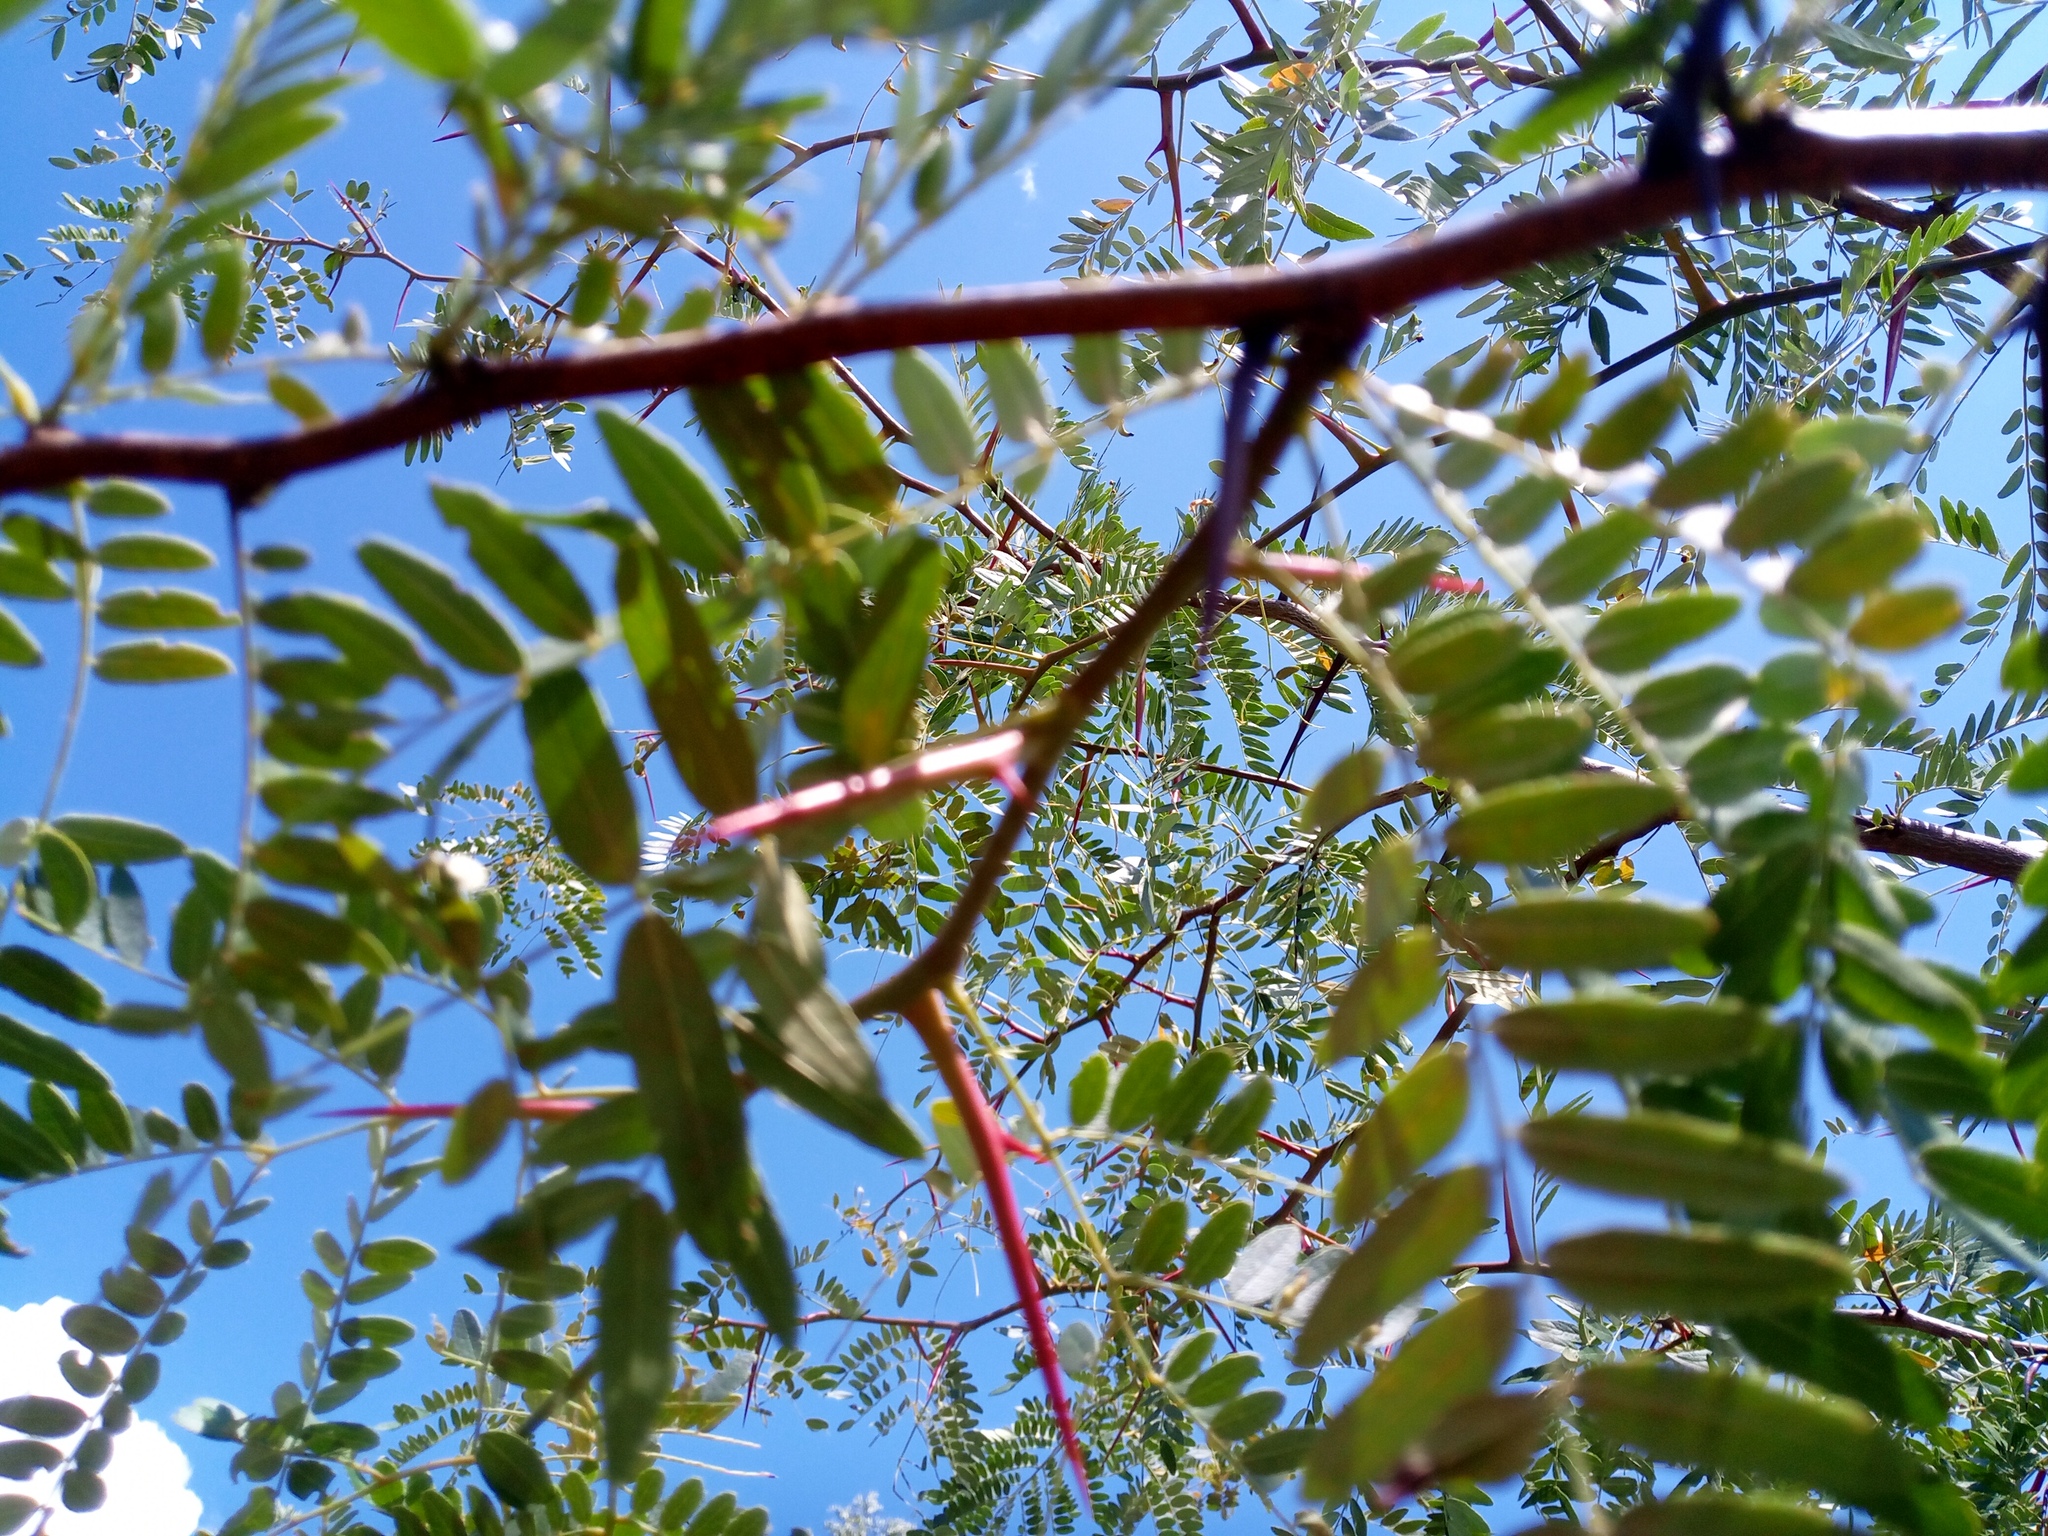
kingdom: Plantae
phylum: Tracheophyta
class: Magnoliopsida
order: Fabales
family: Fabaceae
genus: Gleditsia
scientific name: Gleditsia triacanthos
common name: Common honeylocust
